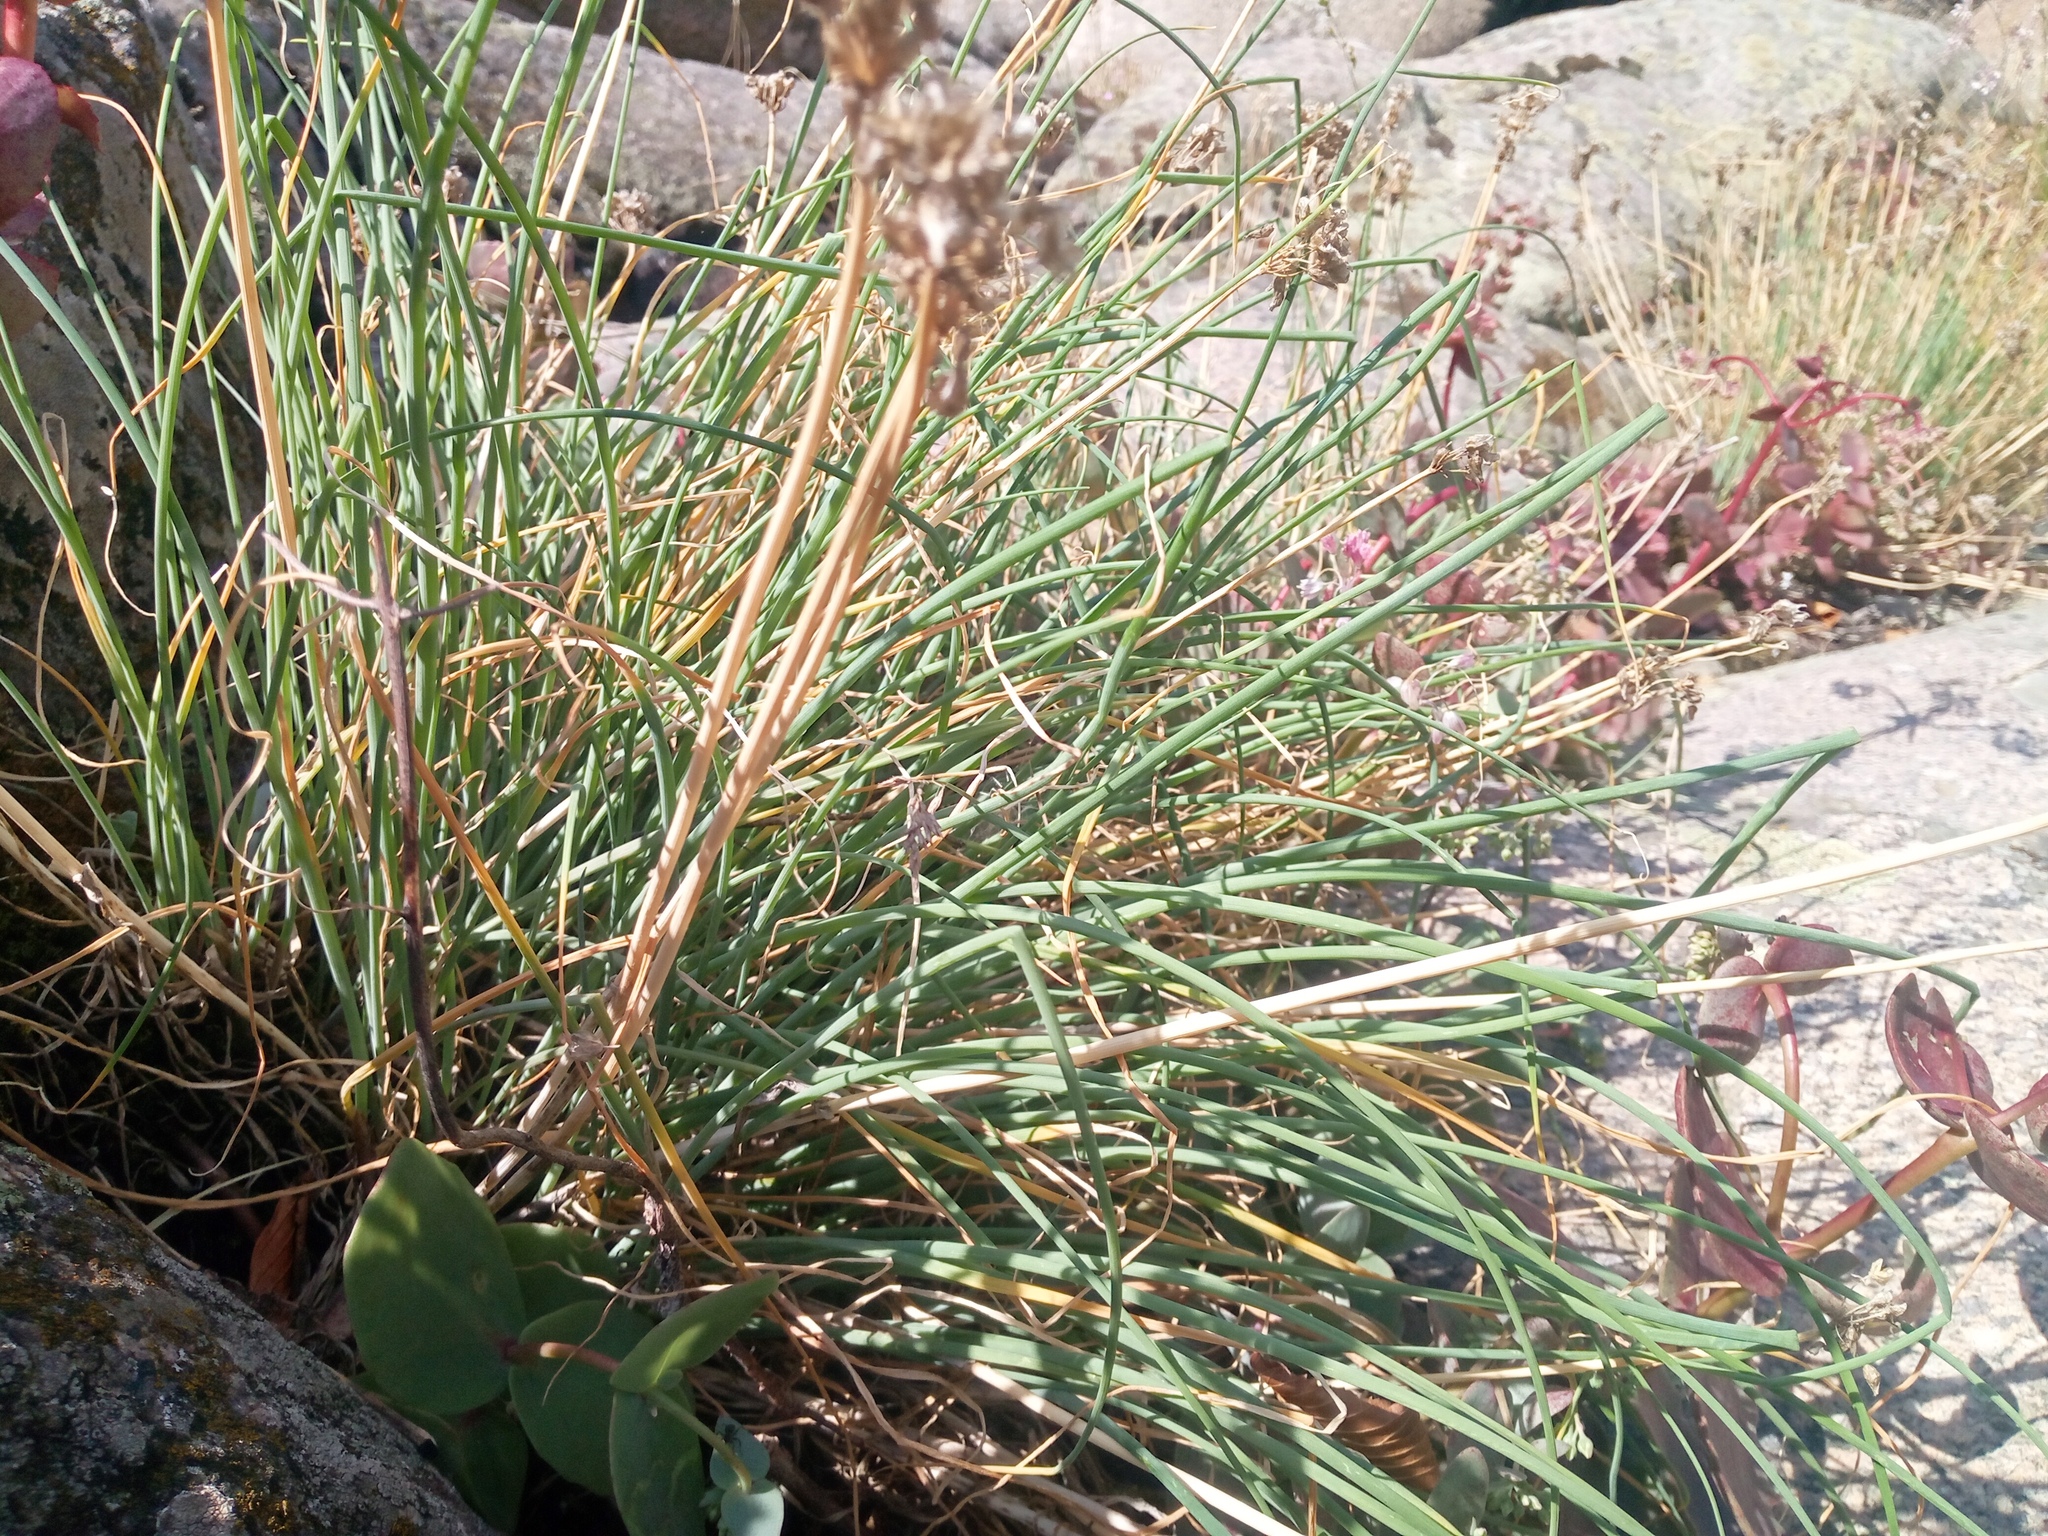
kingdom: Plantae
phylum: Tracheophyta
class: Liliopsida
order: Asparagales
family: Amaryllidaceae
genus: Allium
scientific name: Allium schoenoprasum
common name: Chives
